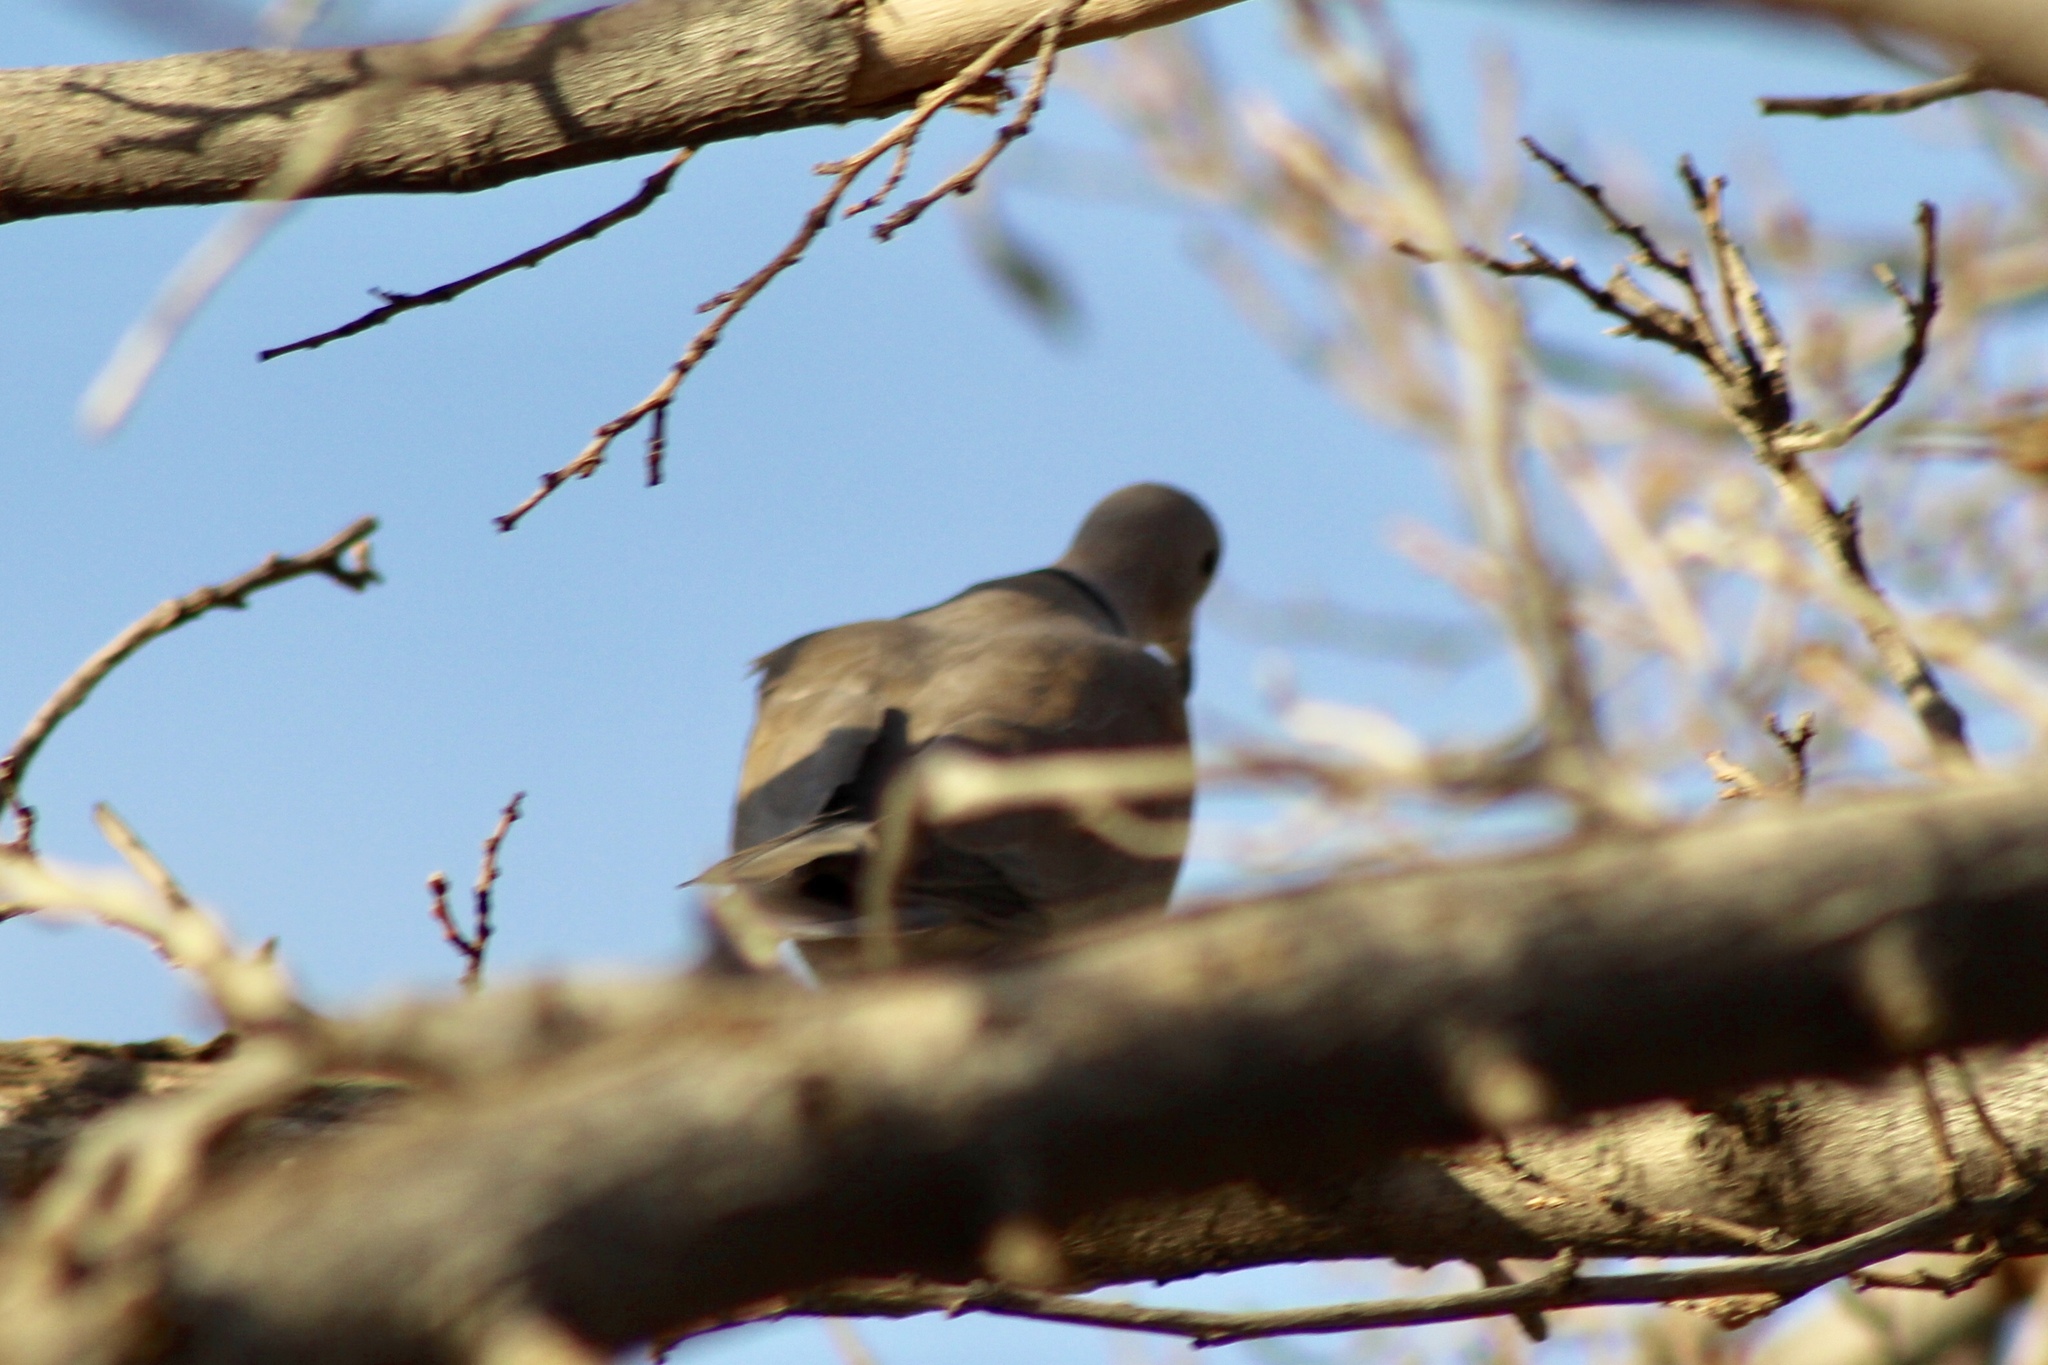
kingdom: Animalia
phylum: Chordata
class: Aves
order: Columbiformes
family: Columbidae
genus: Streptopelia
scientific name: Streptopelia decaocto
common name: Eurasian collared dove
